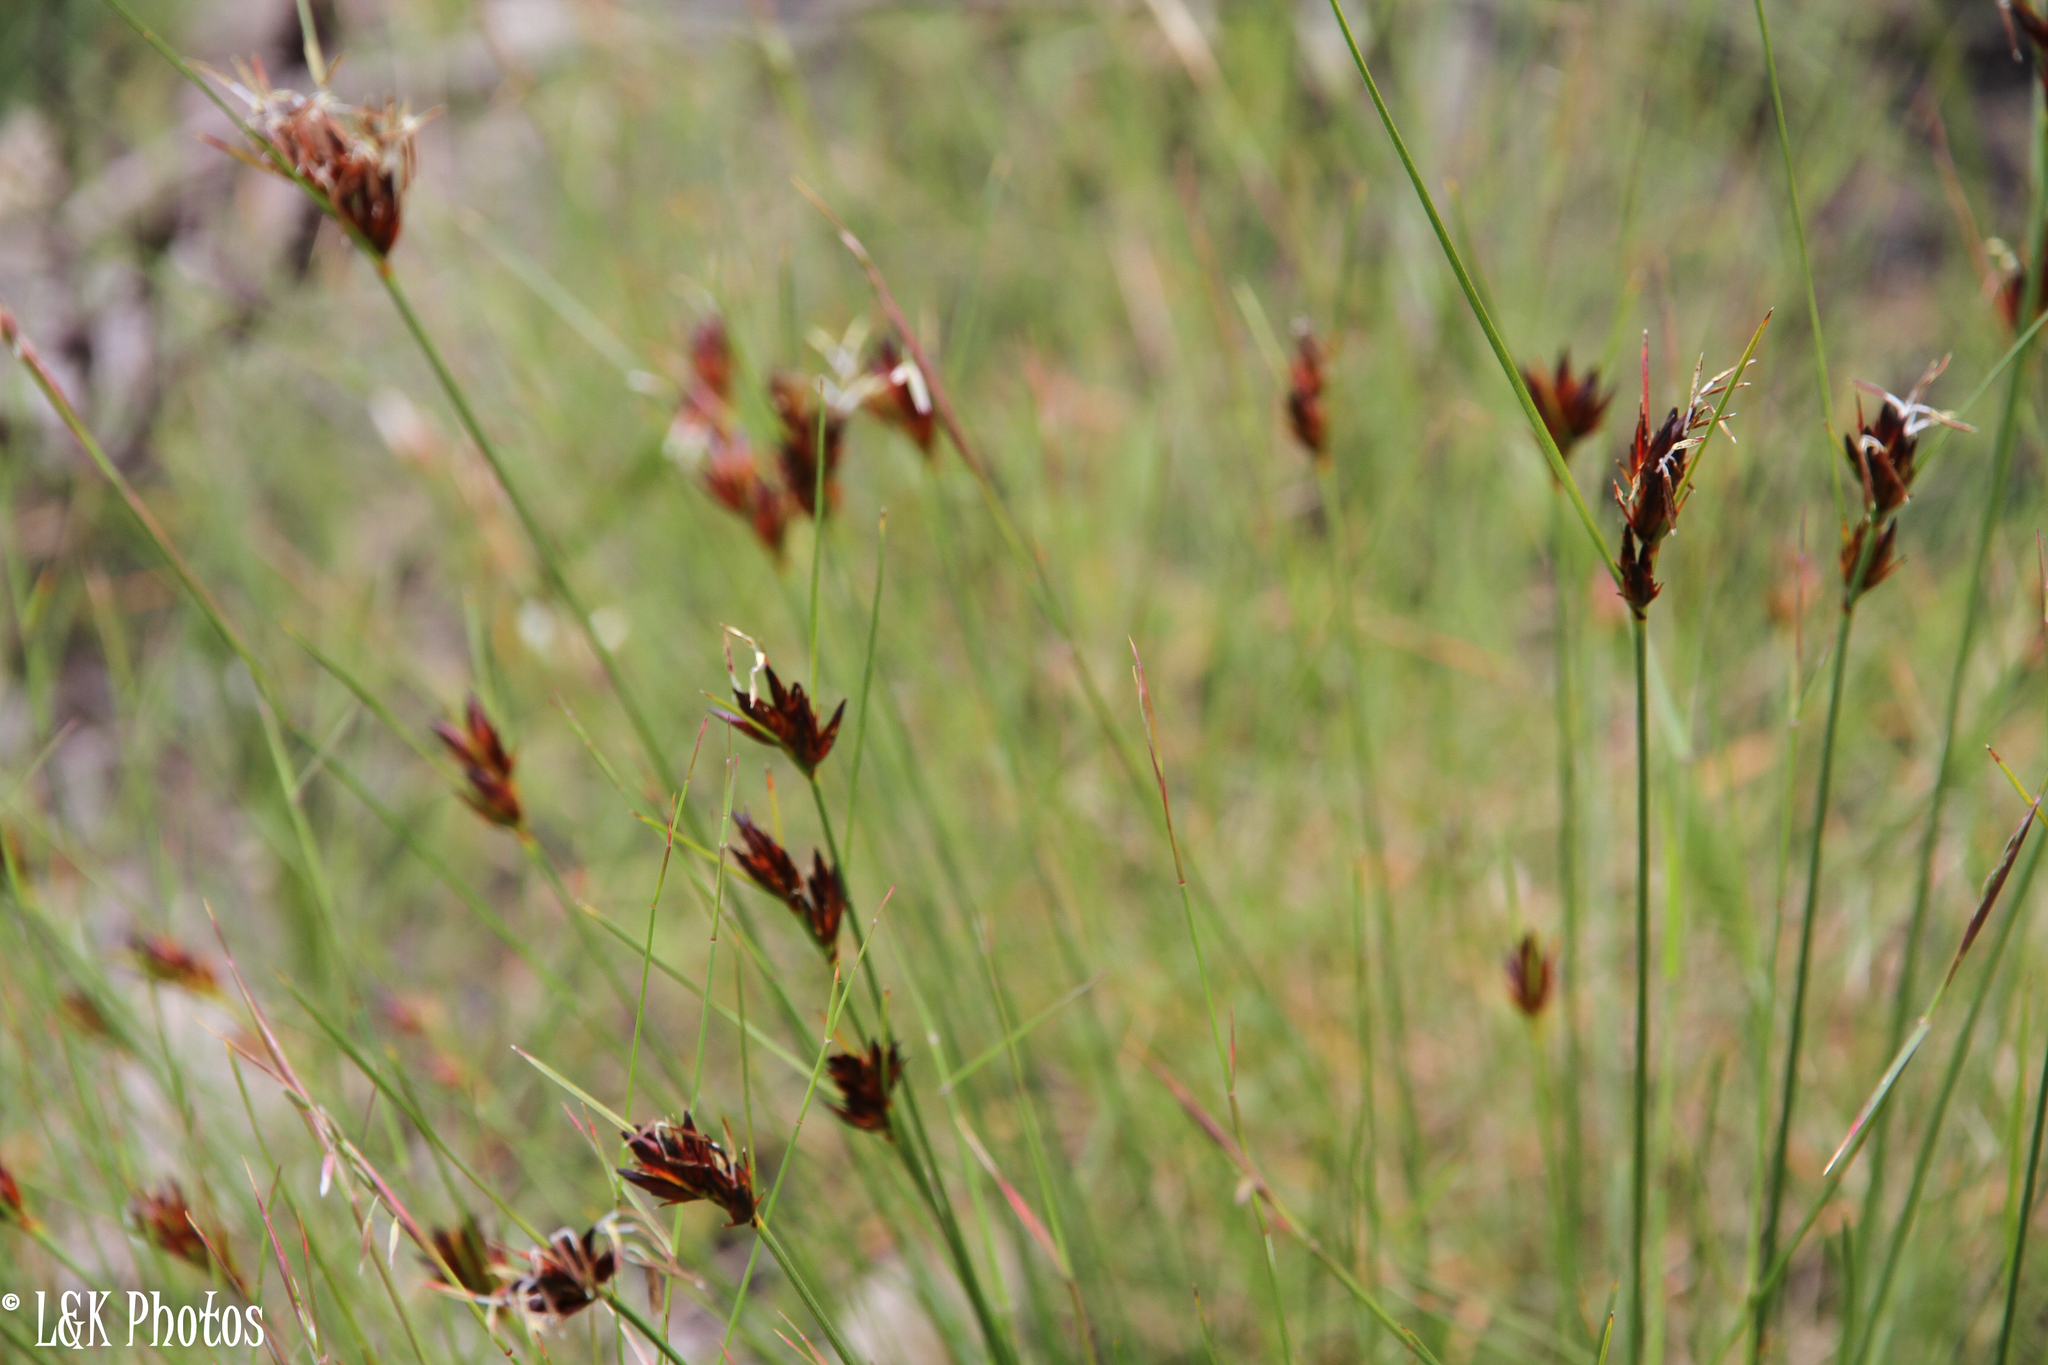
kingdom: Plantae
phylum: Tracheophyta
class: Liliopsida
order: Poales
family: Cyperaceae
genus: Schoenus
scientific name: Schoenus compar
